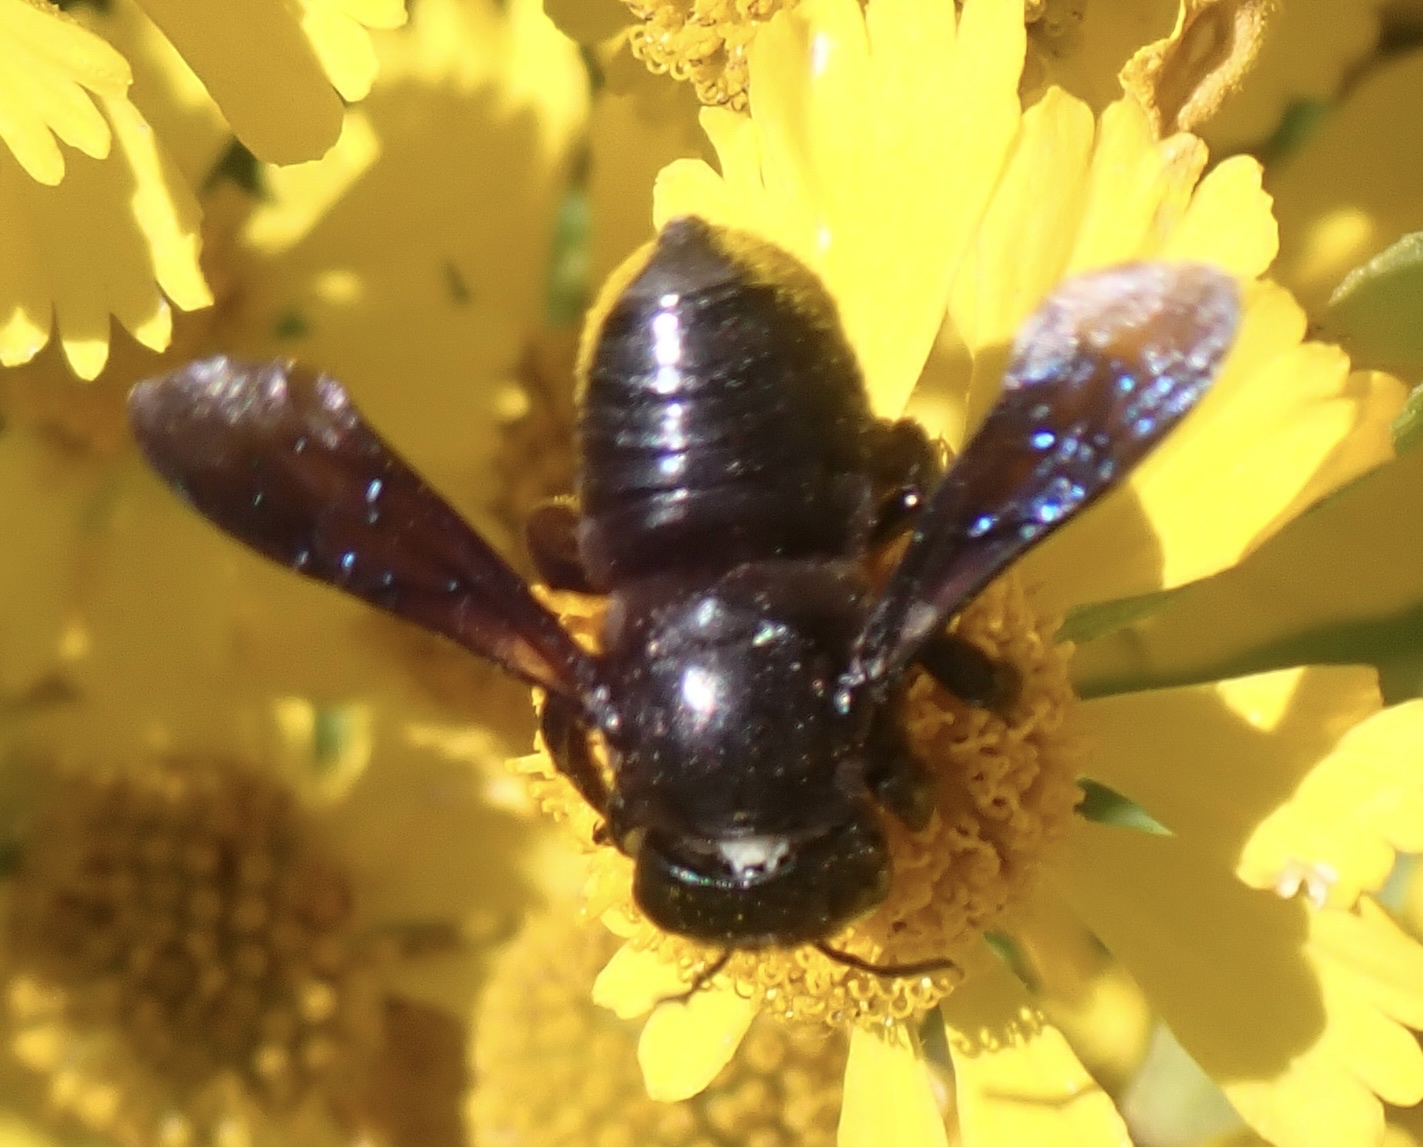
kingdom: Animalia
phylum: Arthropoda
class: Insecta
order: Hymenoptera
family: Megachilidae
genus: Megachile
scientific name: Megachile xylocopoides
